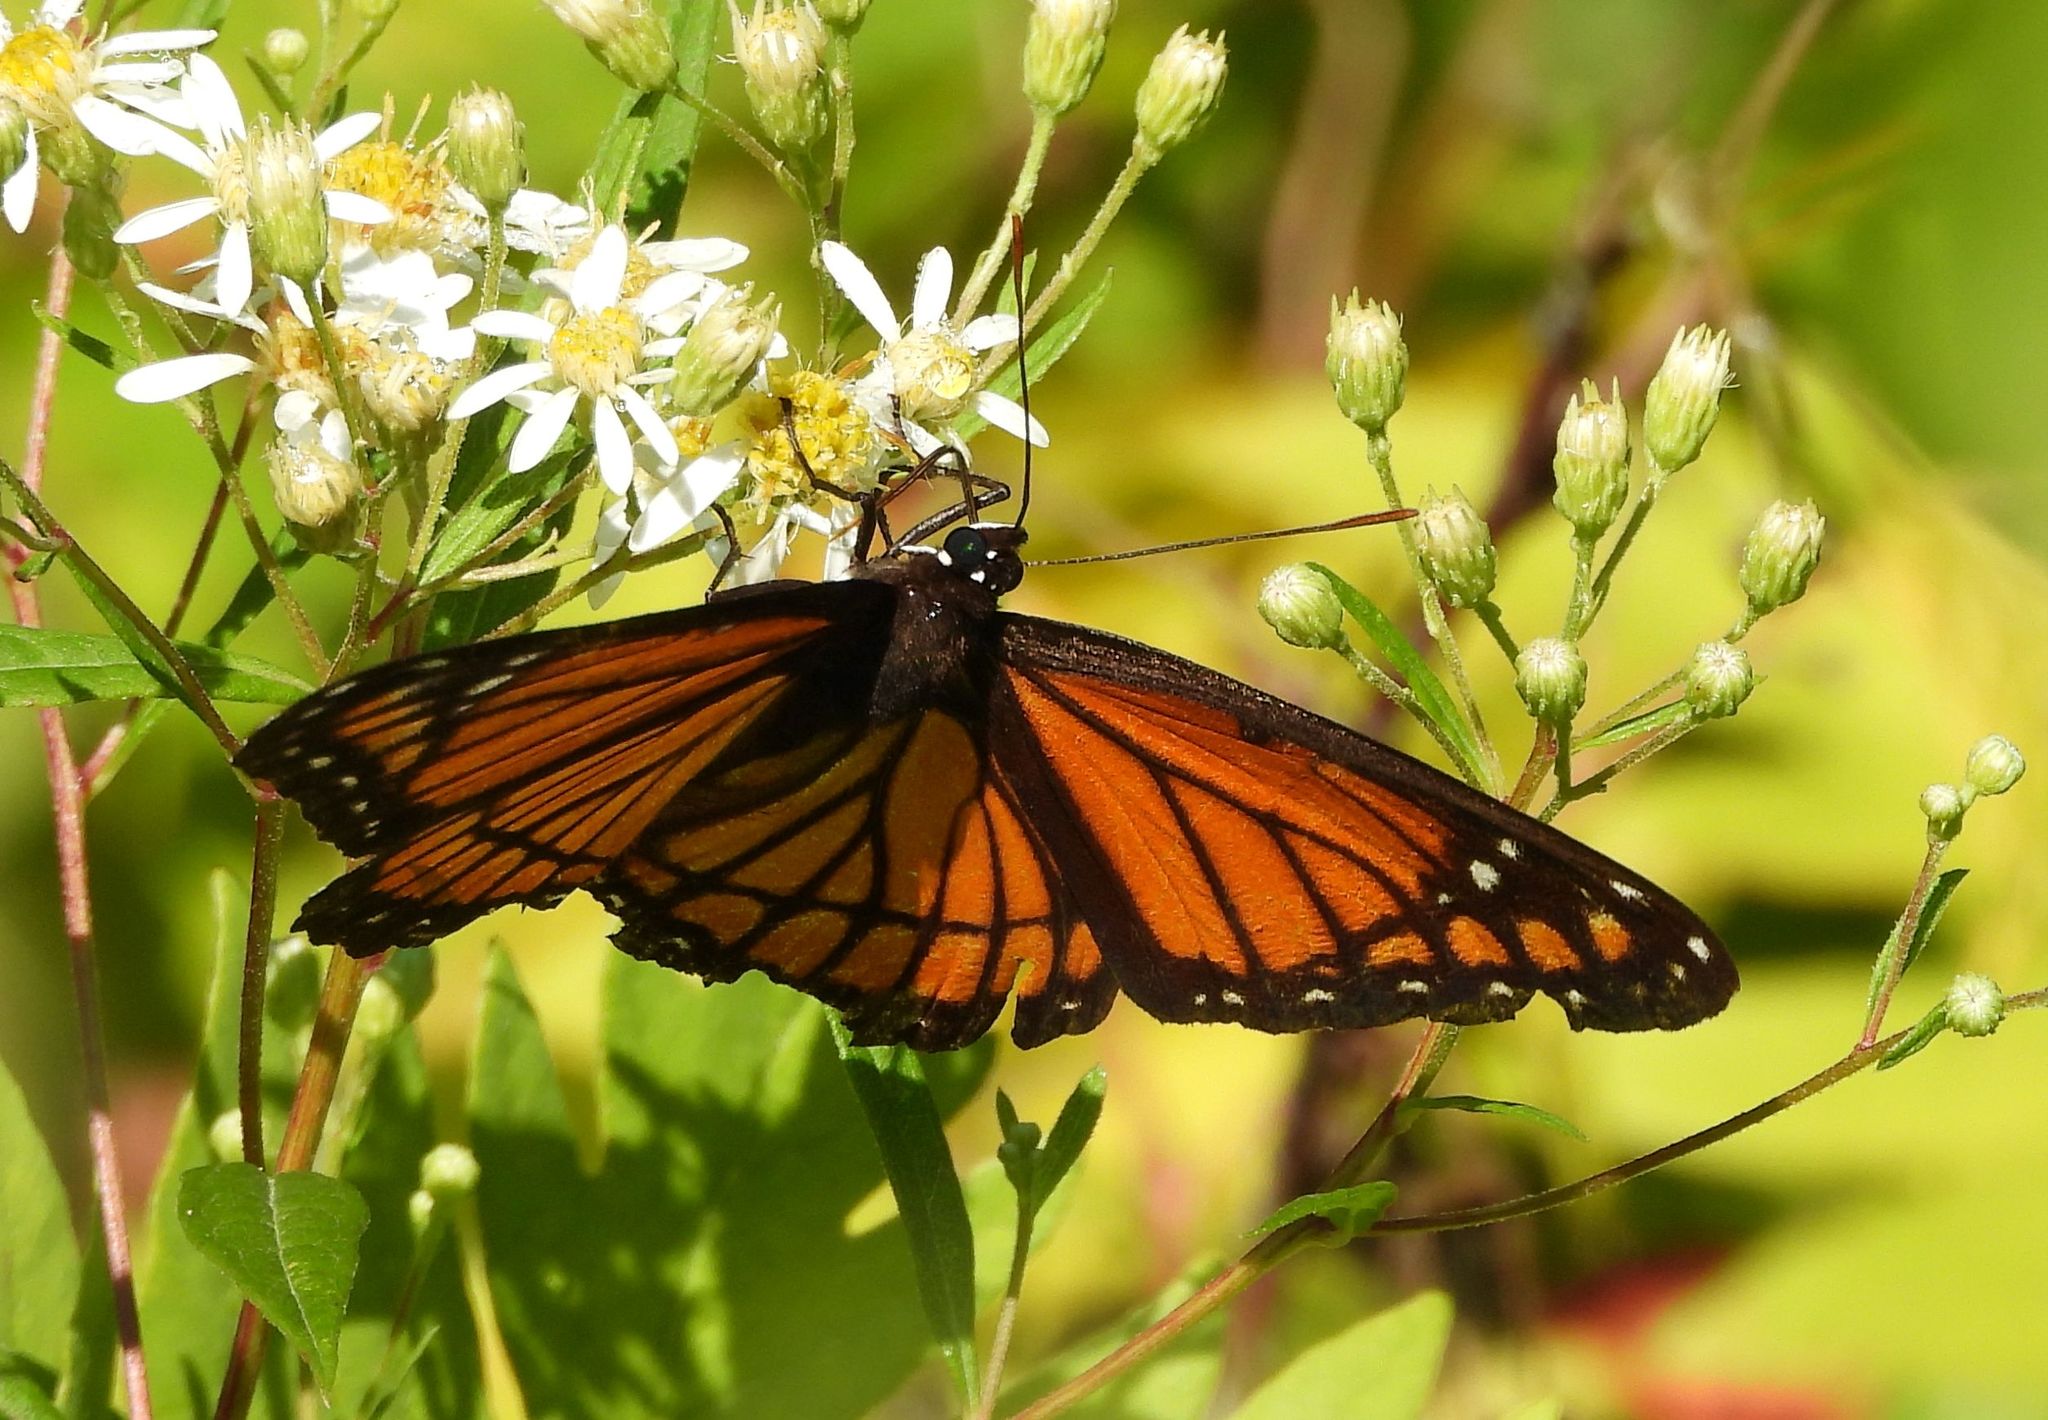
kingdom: Animalia
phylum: Arthropoda
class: Insecta
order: Lepidoptera
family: Nymphalidae
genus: Limenitis
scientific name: Limenitis archippus
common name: Viceroy
